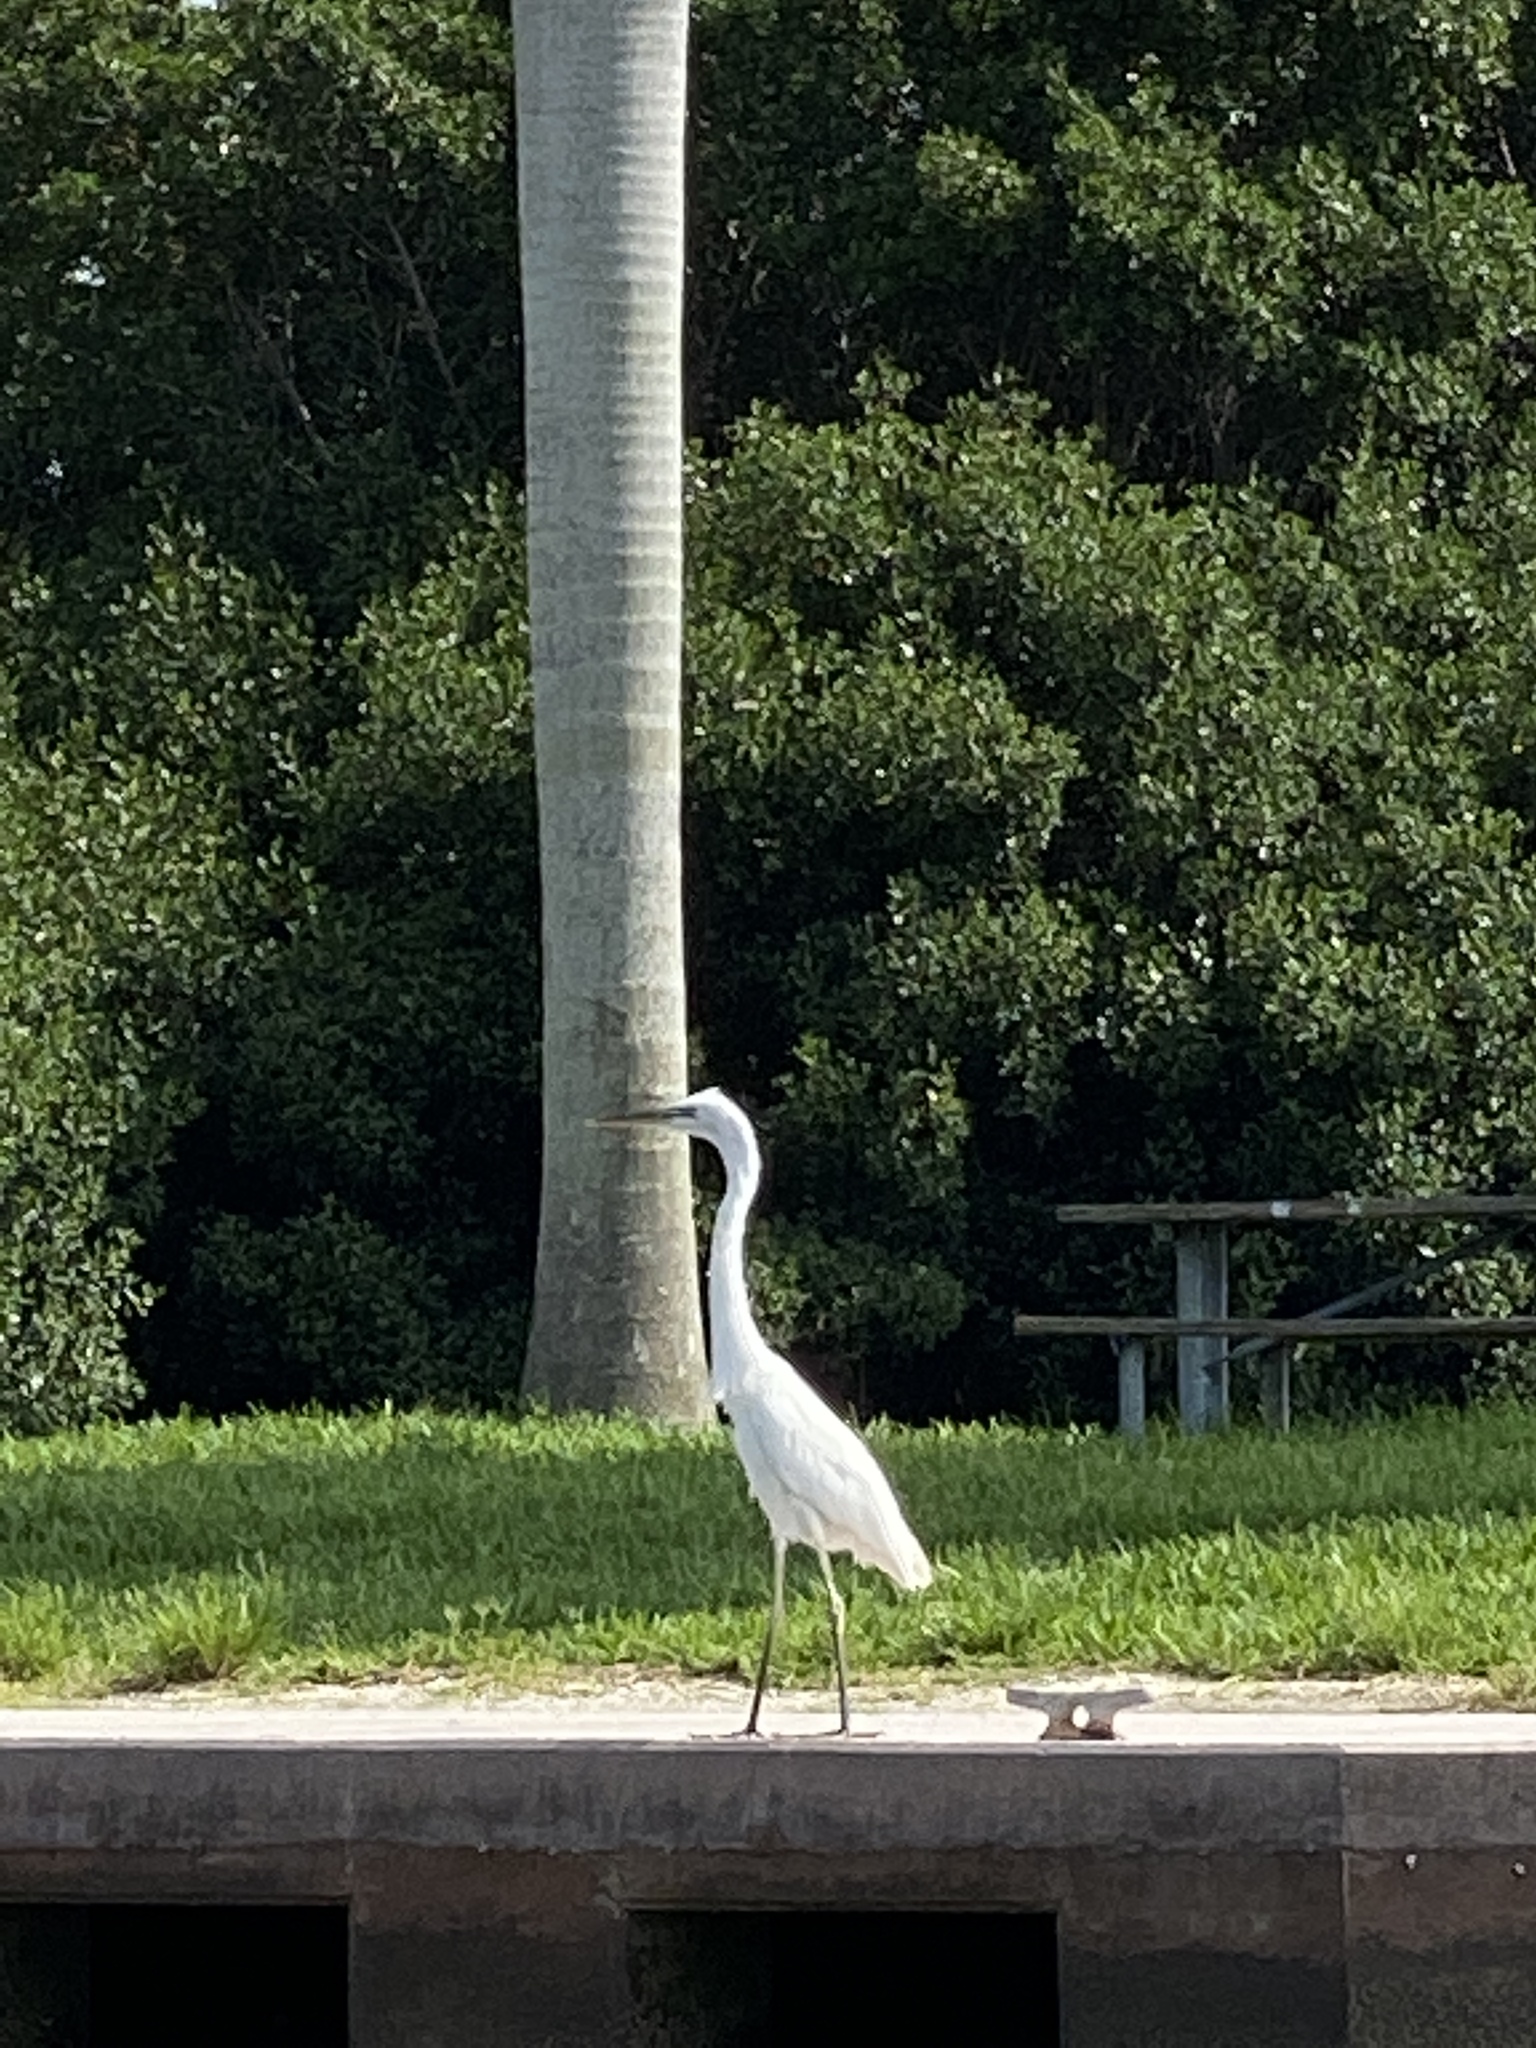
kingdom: Animalia
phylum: Chordata
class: Aves
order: Pelecaniformes
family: Ardeidae
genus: Ardea
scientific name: Ardea alba
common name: Great egret
